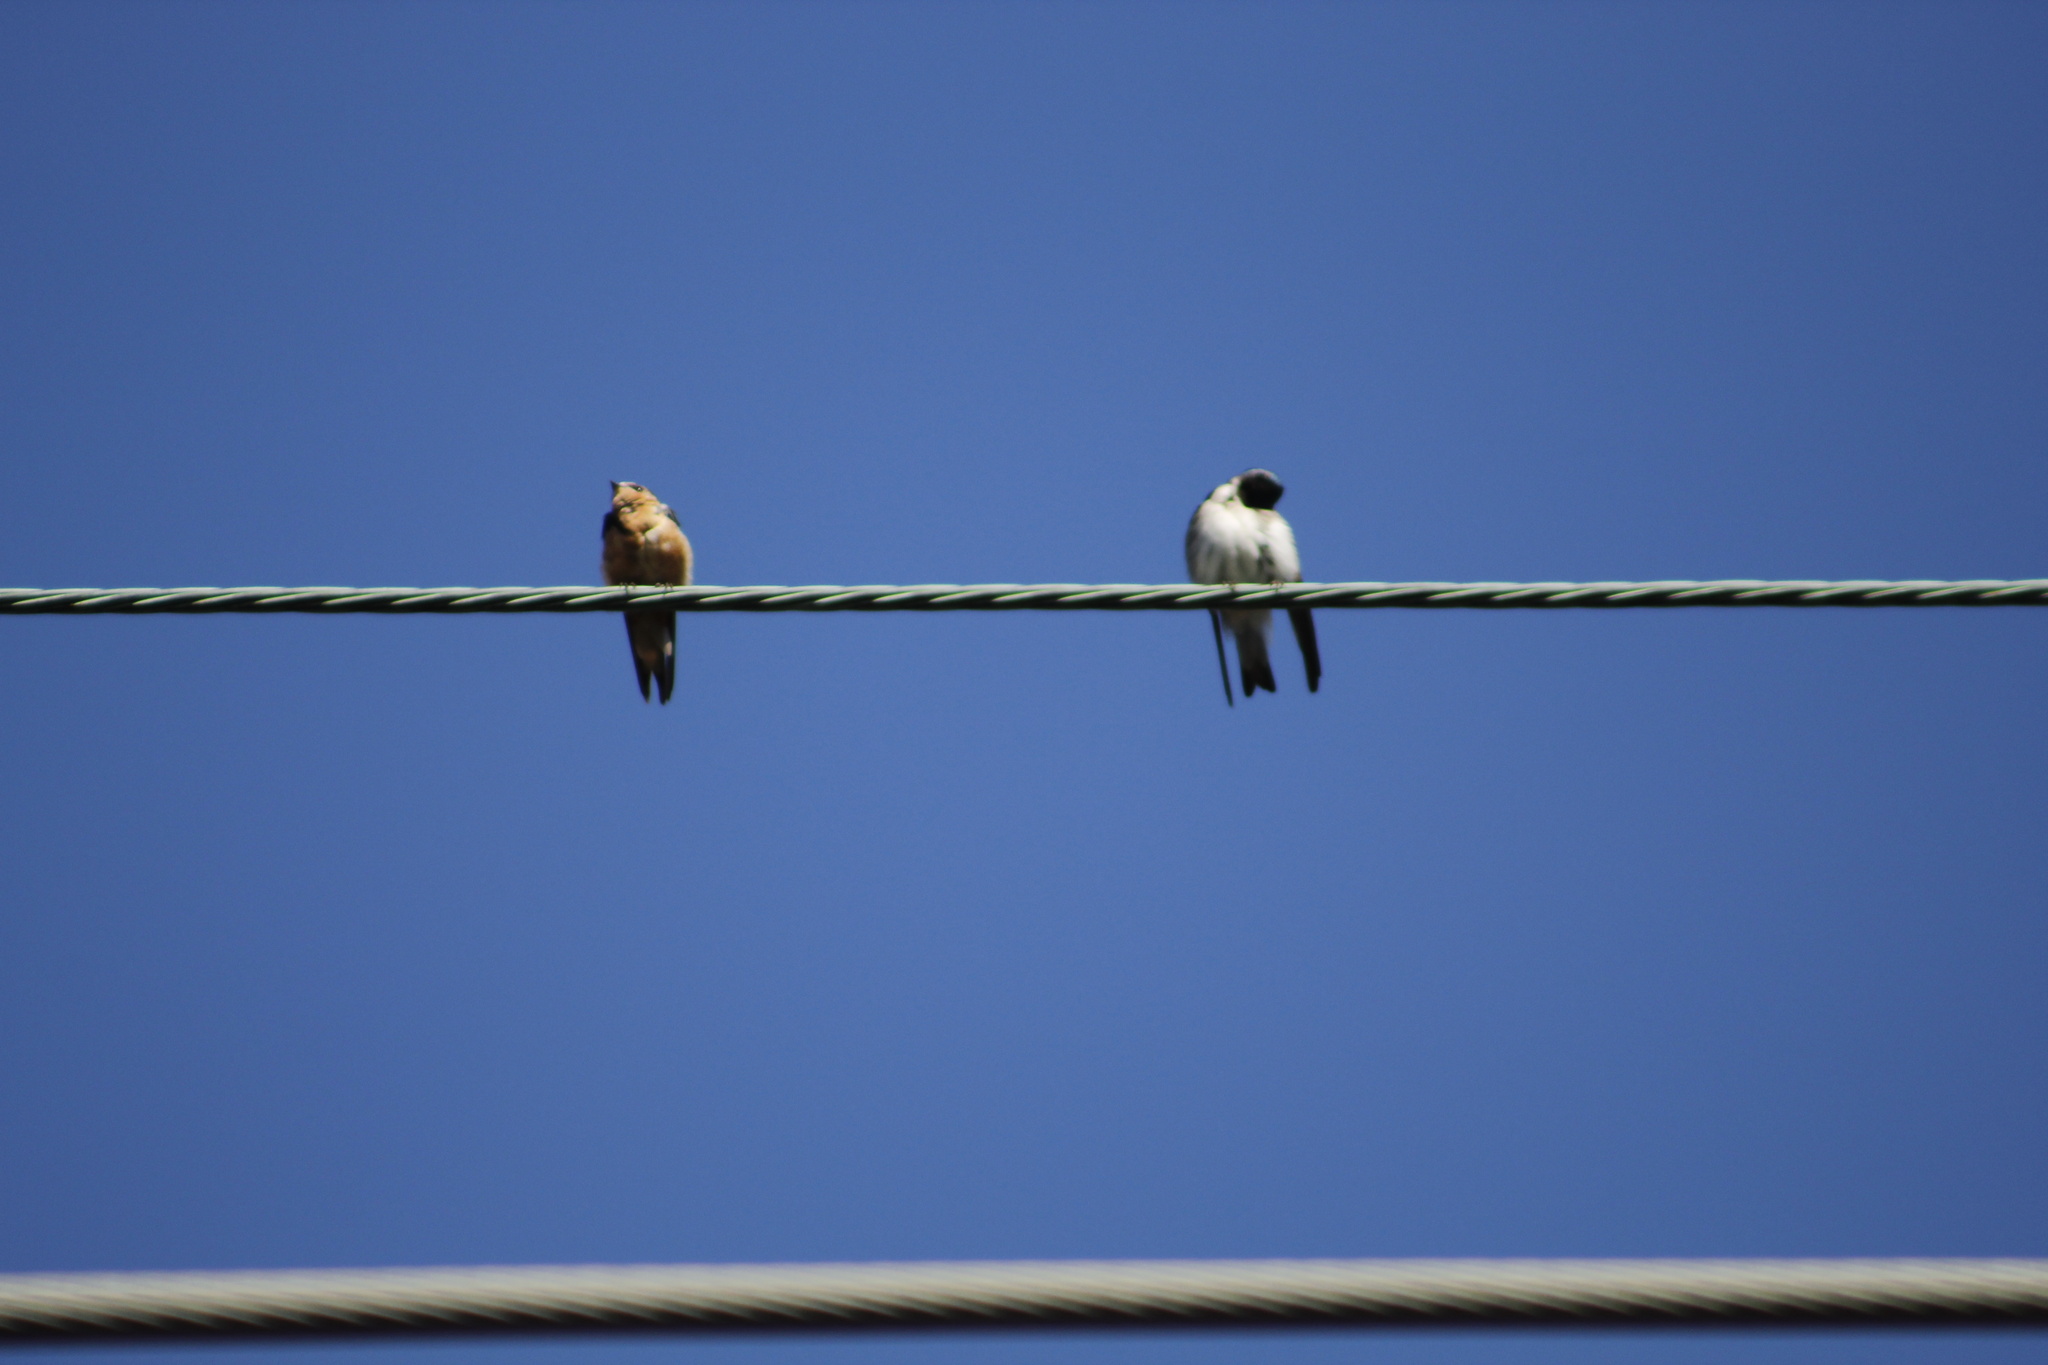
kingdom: Animalia
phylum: Chordata
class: Aves
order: Passeriformes
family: Hirundinidae
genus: Hirundo
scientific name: Hirundo rustica
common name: Barn swallow
